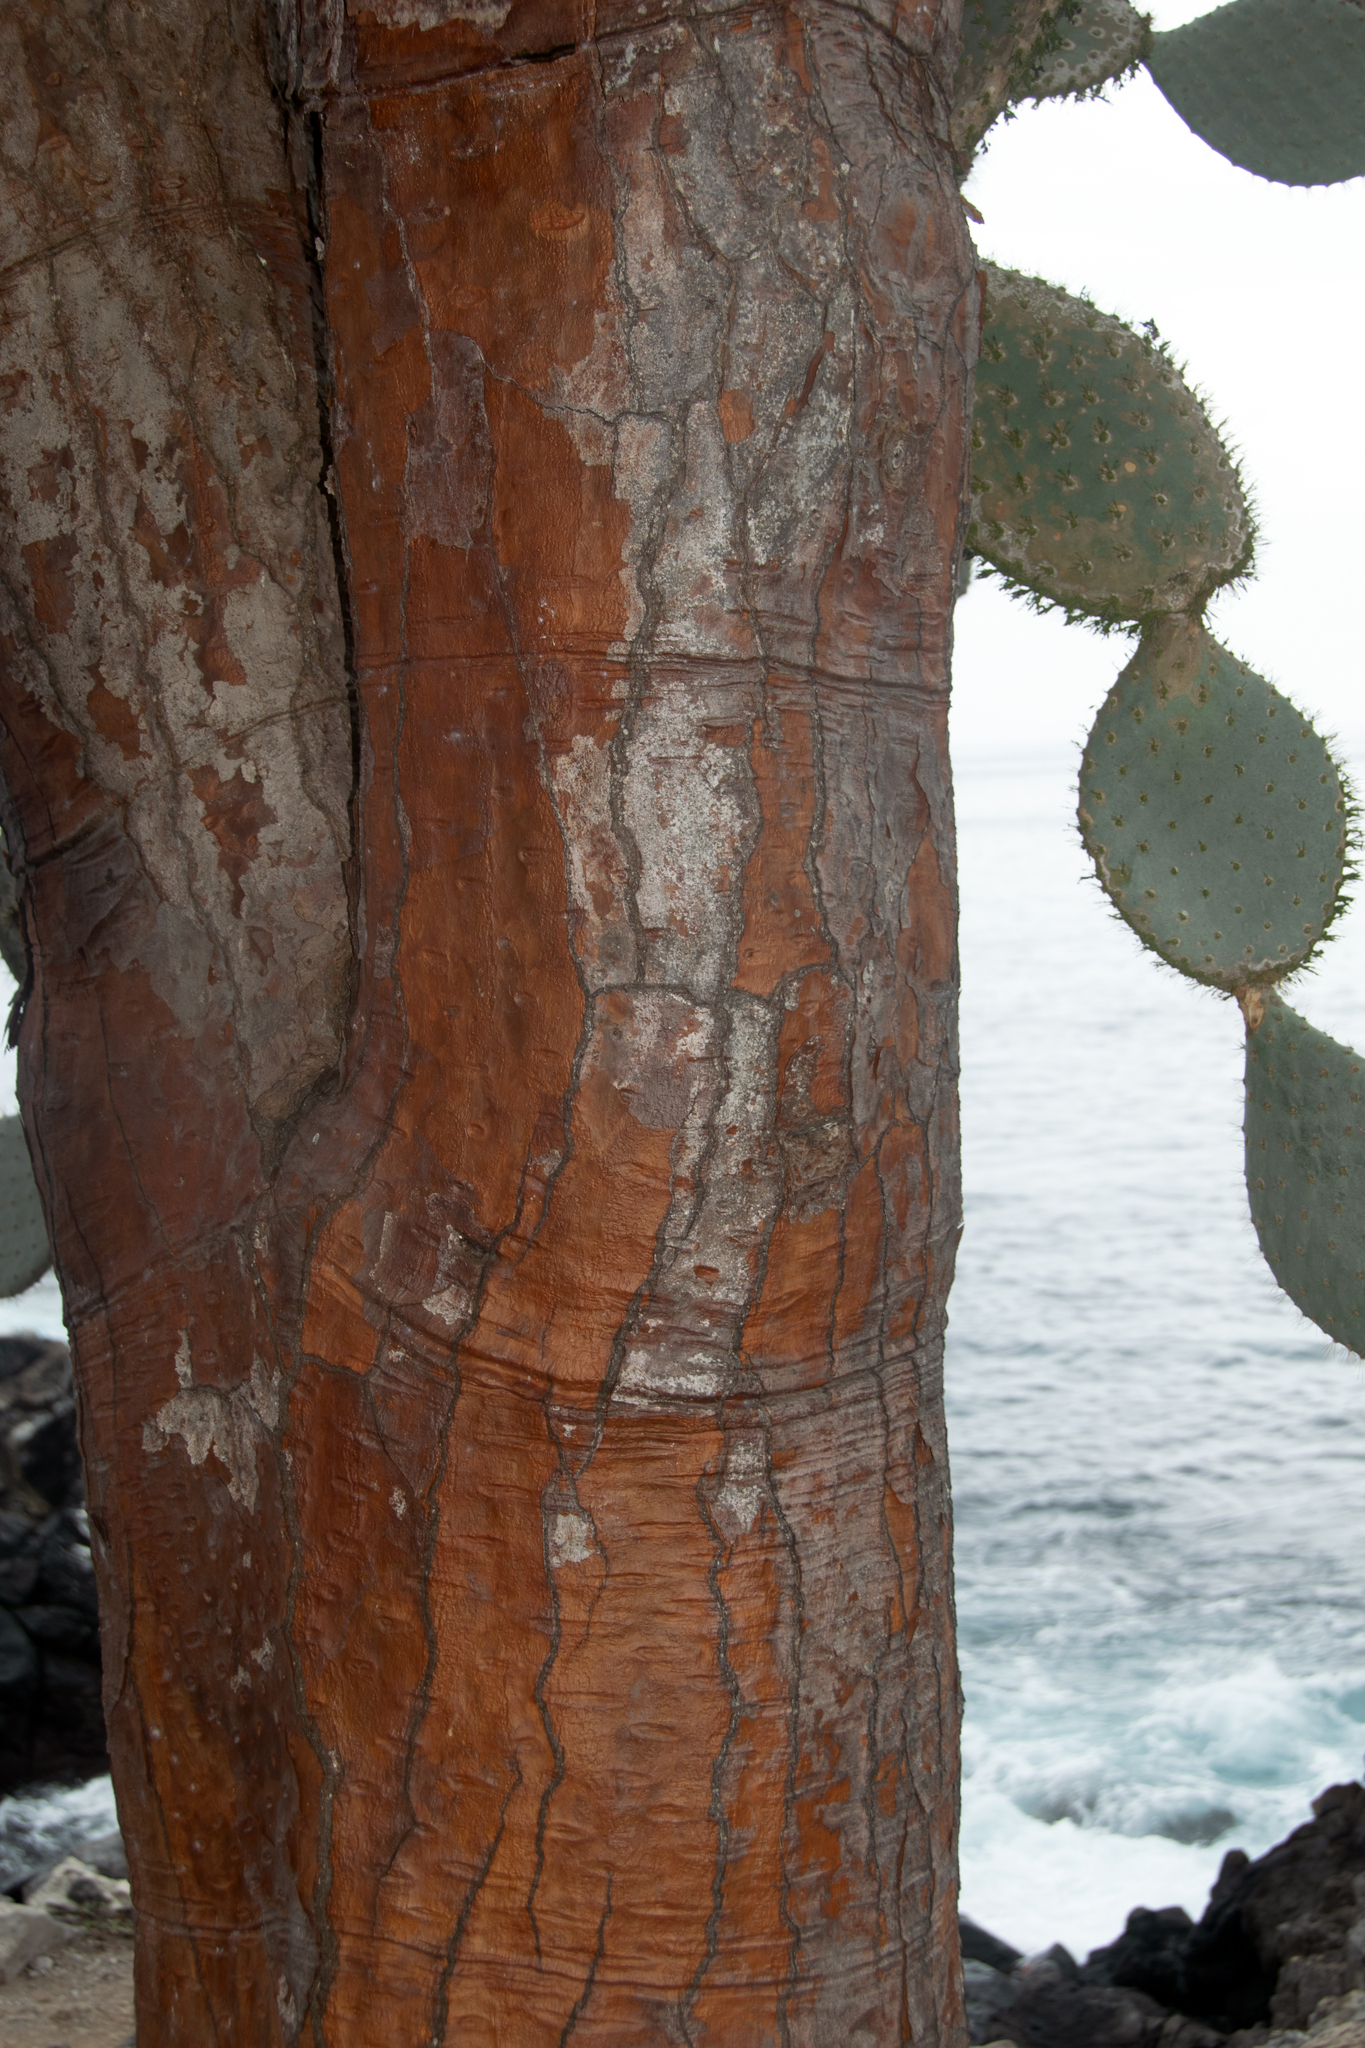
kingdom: Plantae
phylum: Tracheophyta
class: Magnoliopsida
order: Caryophyllales
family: Cactaceae
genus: Opuntia
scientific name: Opuntia galapageia
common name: Galápagos prickly pear
